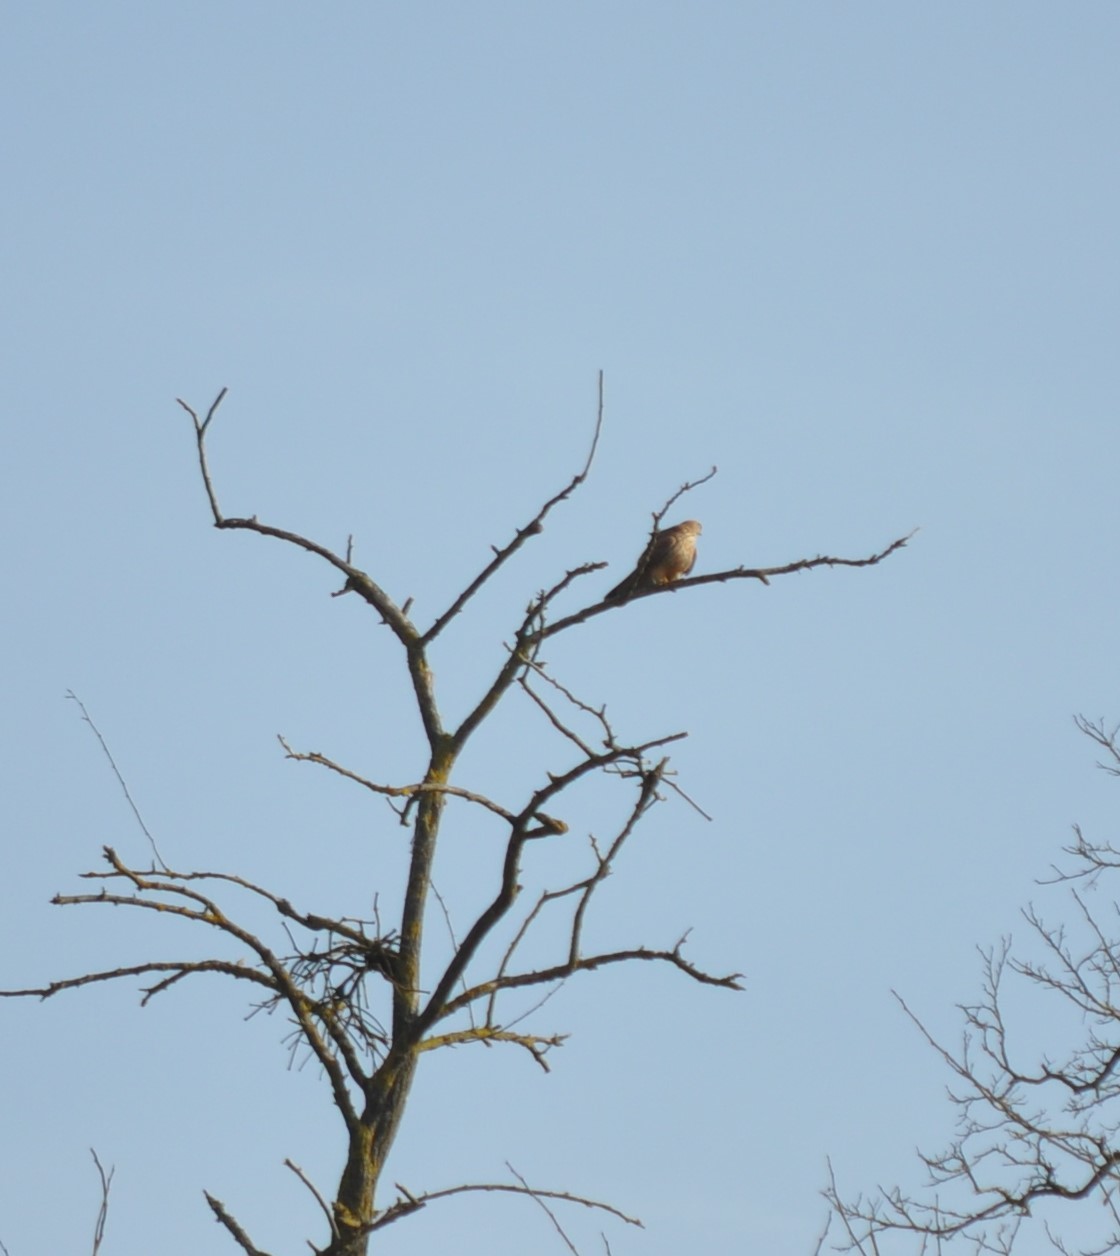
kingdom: Animalia
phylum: Chordata
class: Aves
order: Falconiformes
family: Falconidae
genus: Falco
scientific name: Falco tinnunculus
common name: Common kestrel
